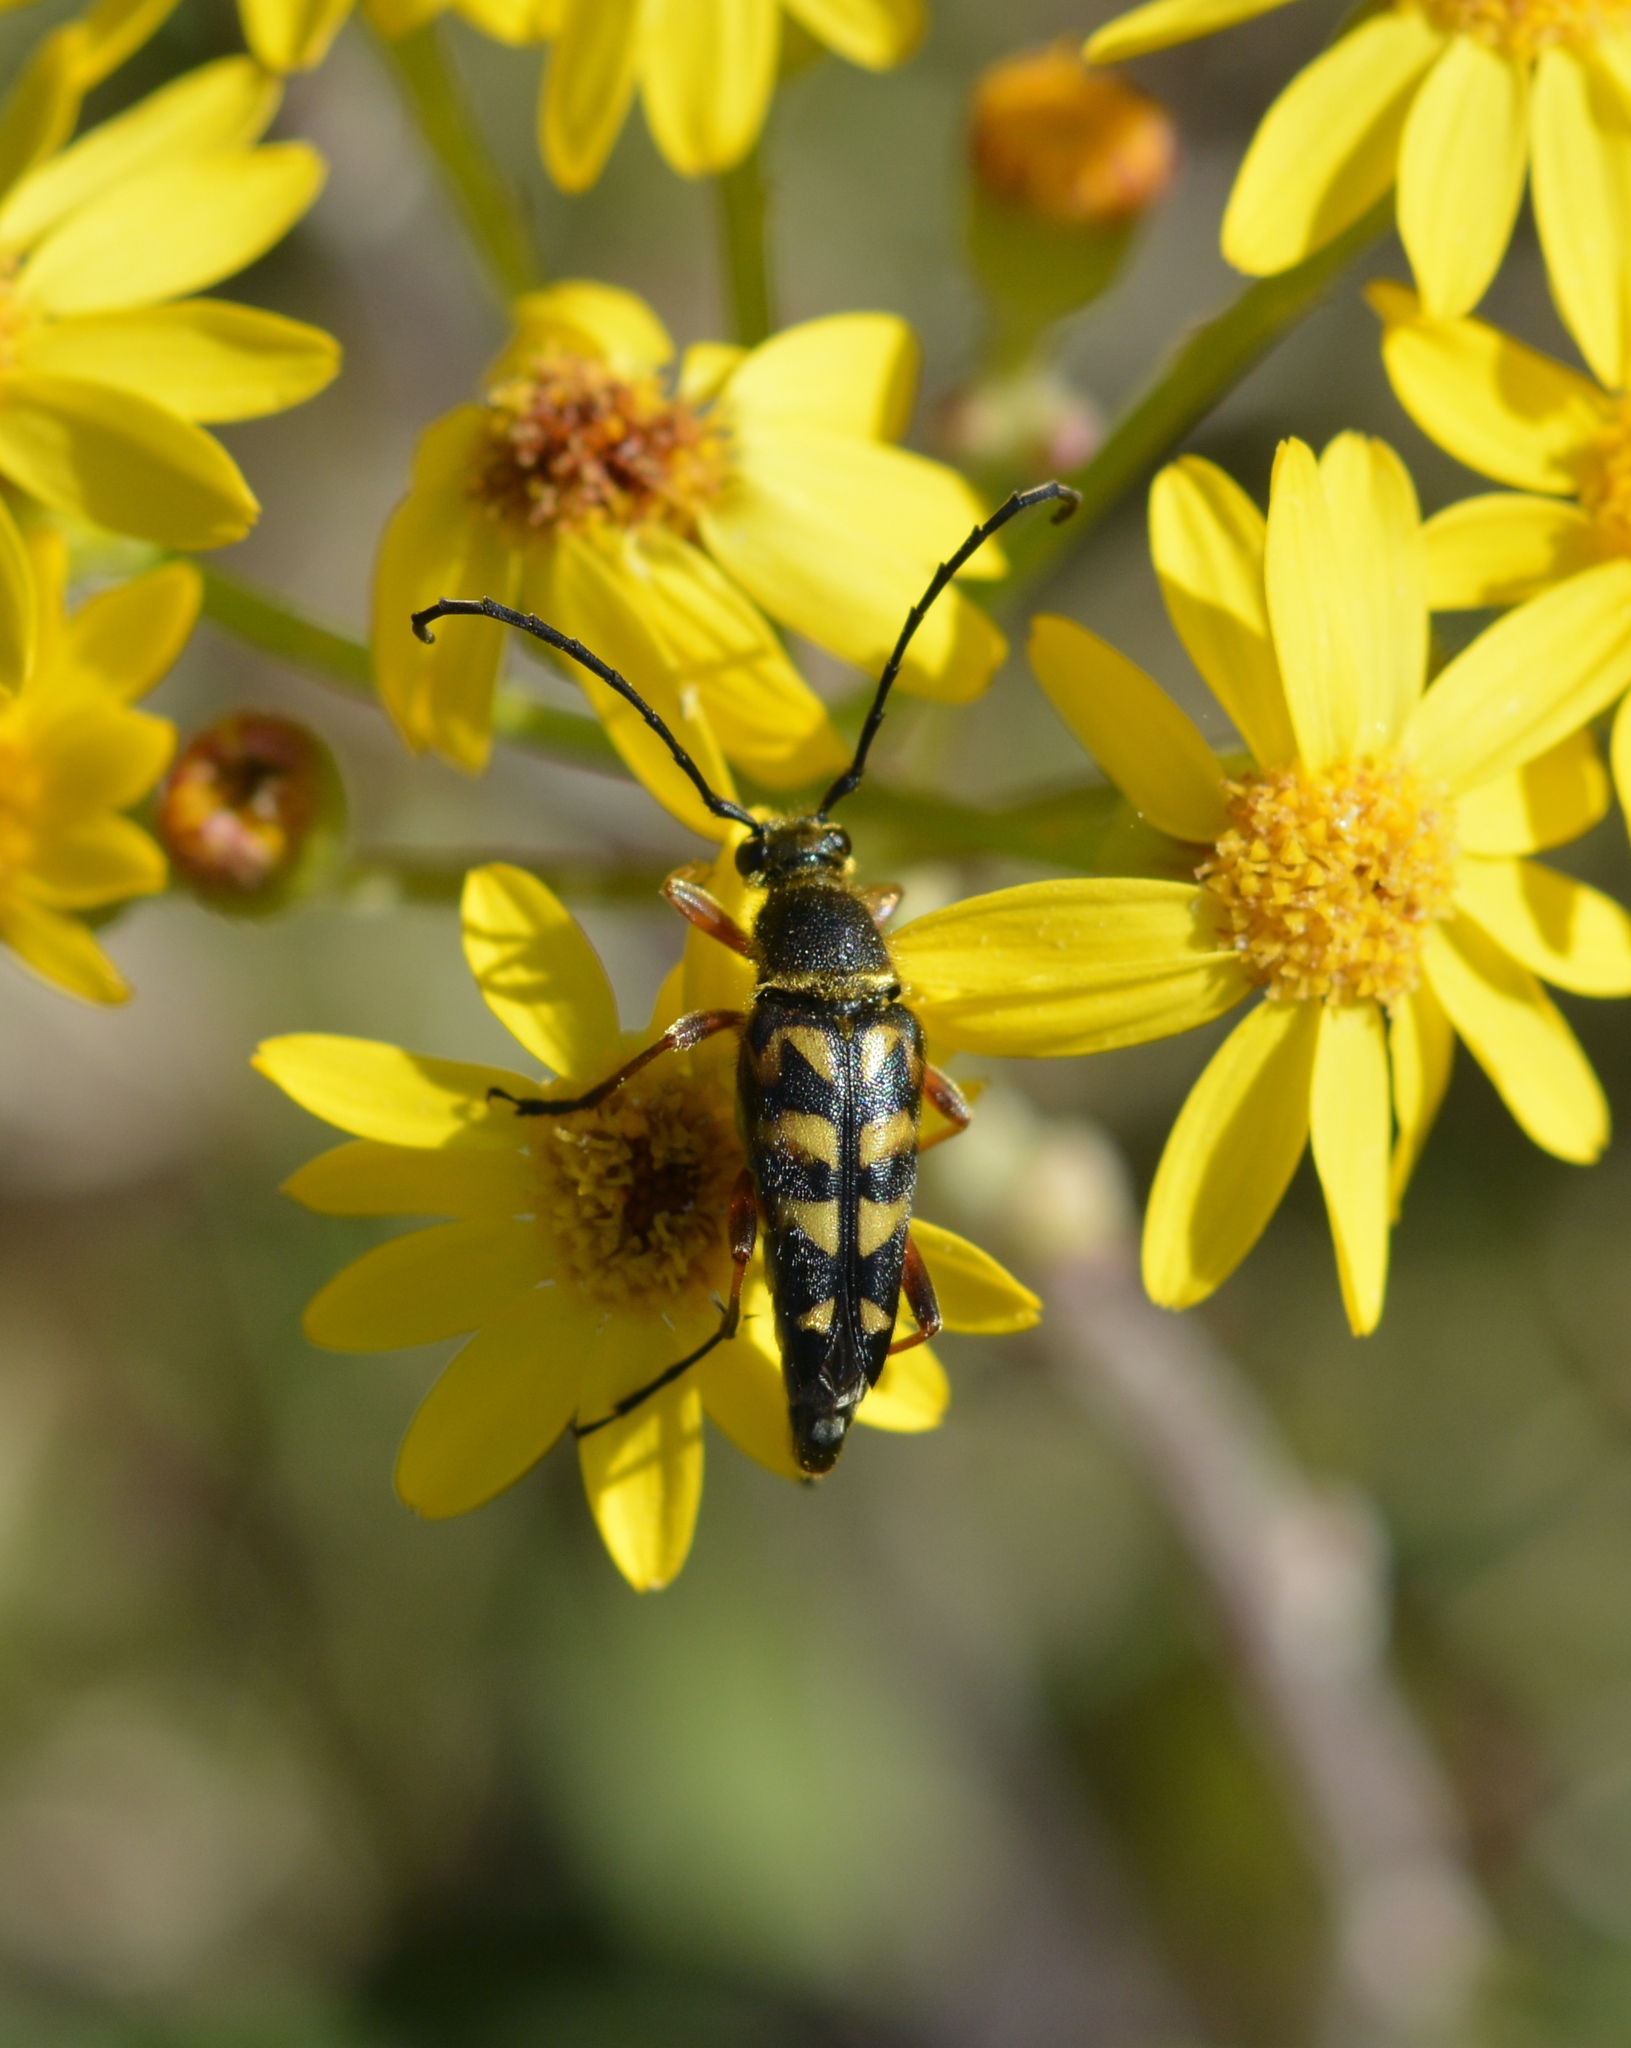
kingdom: Animalia
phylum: Arthropoda
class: Insecta
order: Coleoptera
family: Cerambycidae
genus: Typocerus
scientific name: Typocerus zebra
